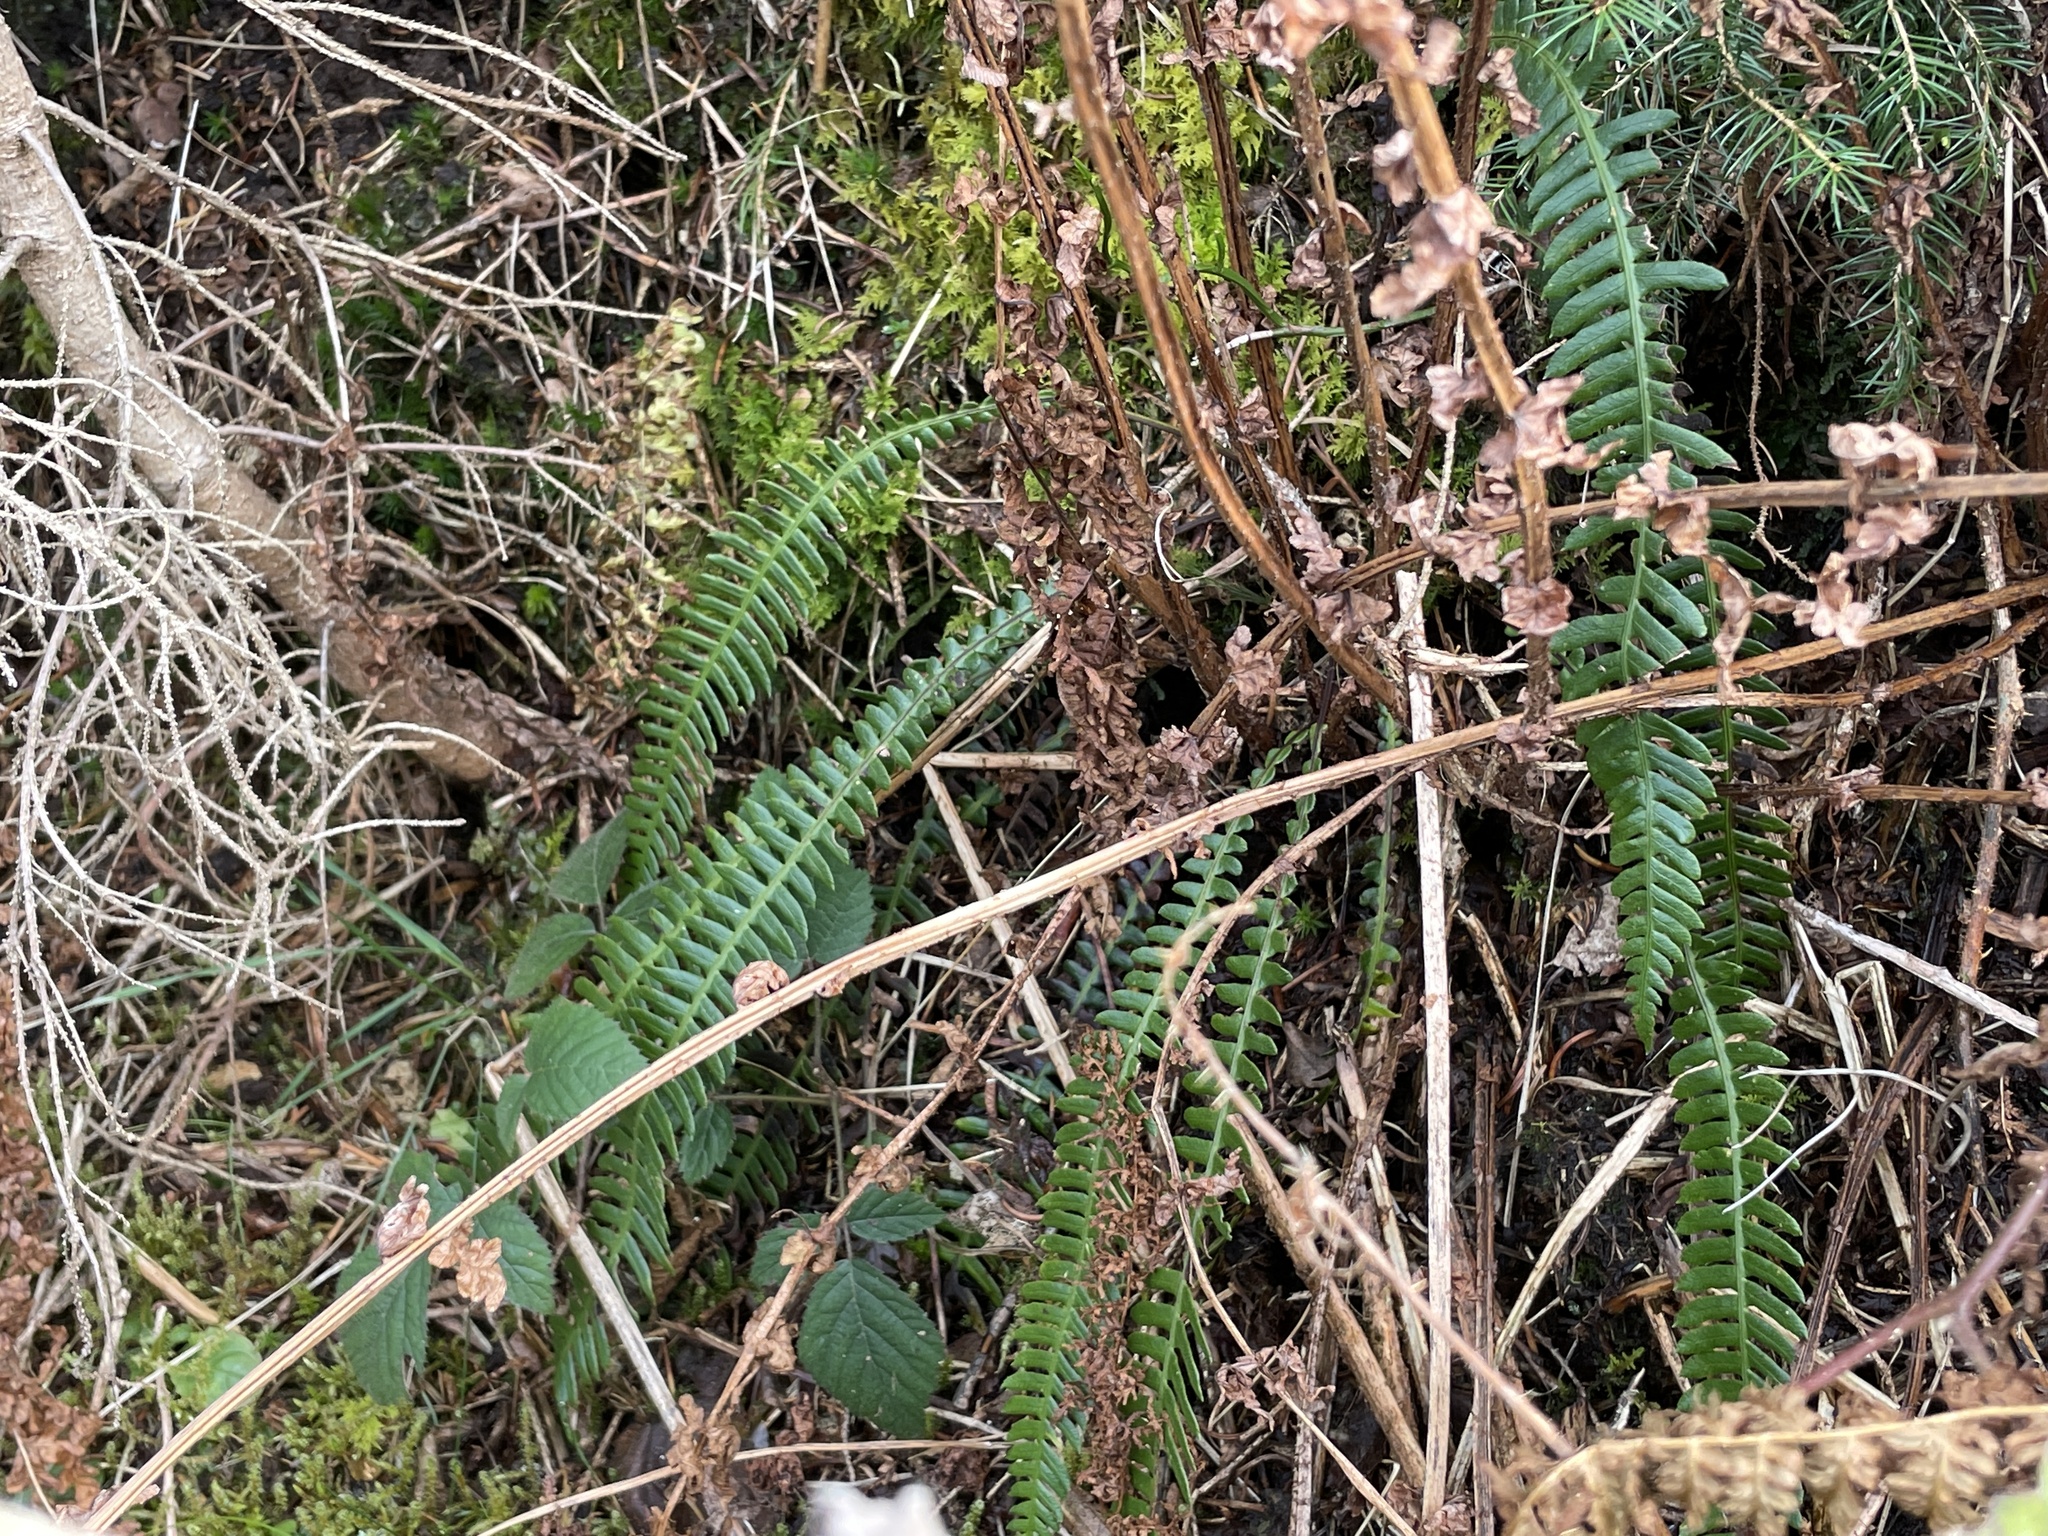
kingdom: Plantae
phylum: Tracheophyta
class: Polypodiopsida
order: Polypodiales
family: Blechnaceae
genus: Struthiopteris
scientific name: Struthiopteris spicant
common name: Deer fern
